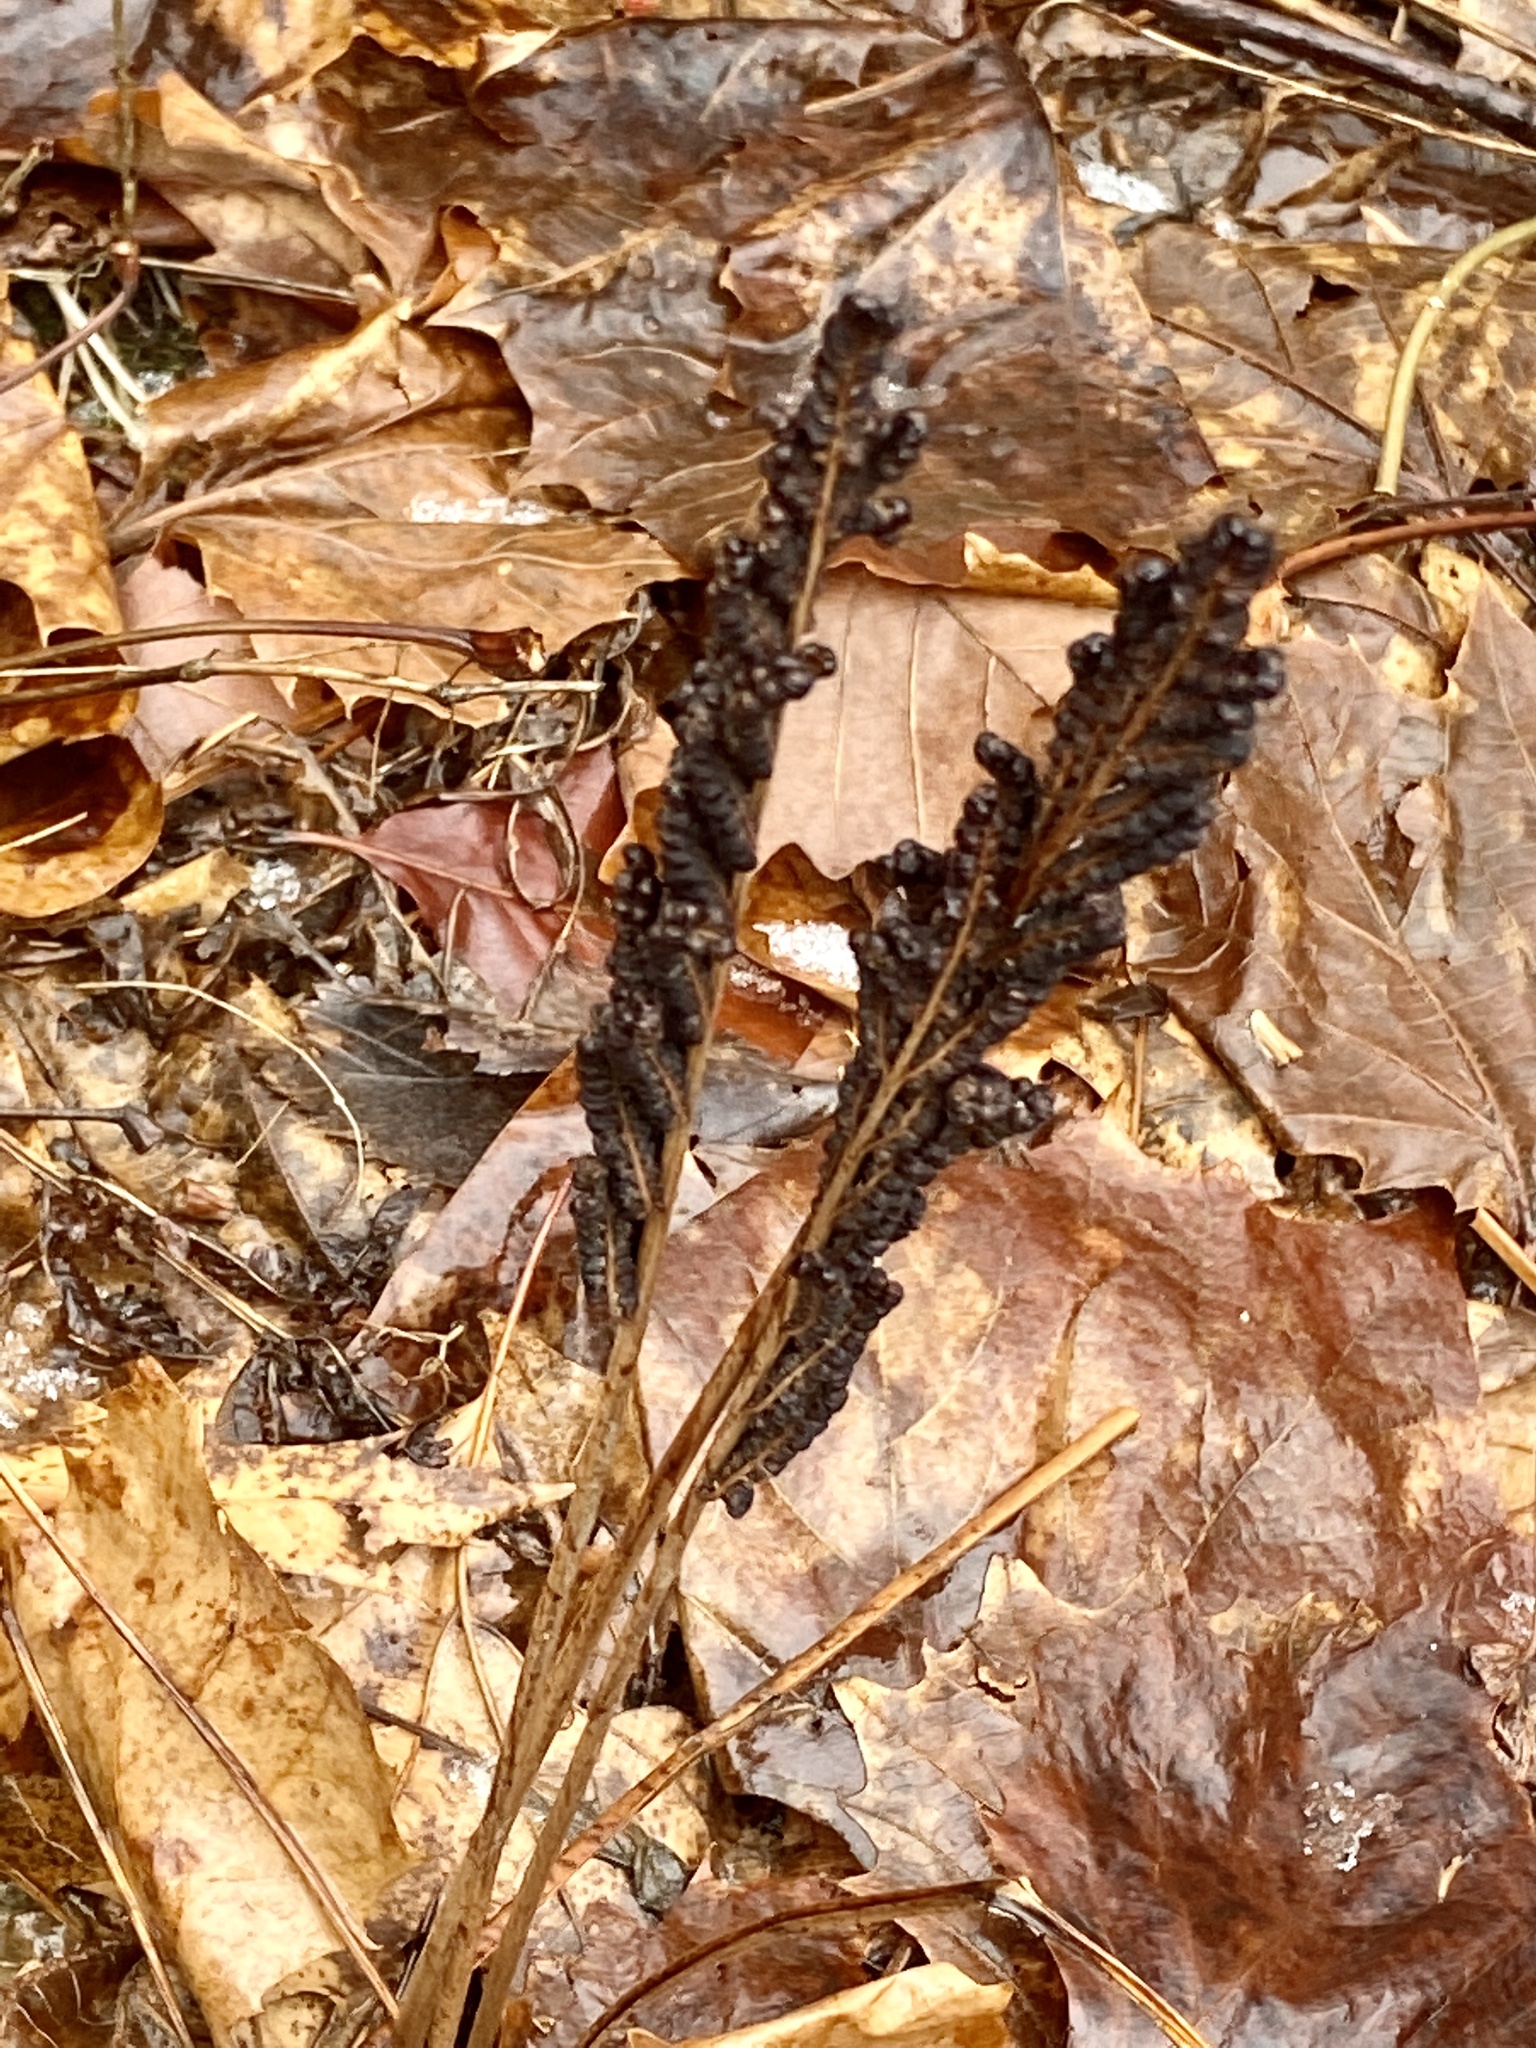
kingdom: Plantae
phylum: Tracheophyta
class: Polypodiopsida
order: Polypodiales
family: Onocleaceae
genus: Onoclea
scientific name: Onoclea sensibilis
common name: Sensitive fern
